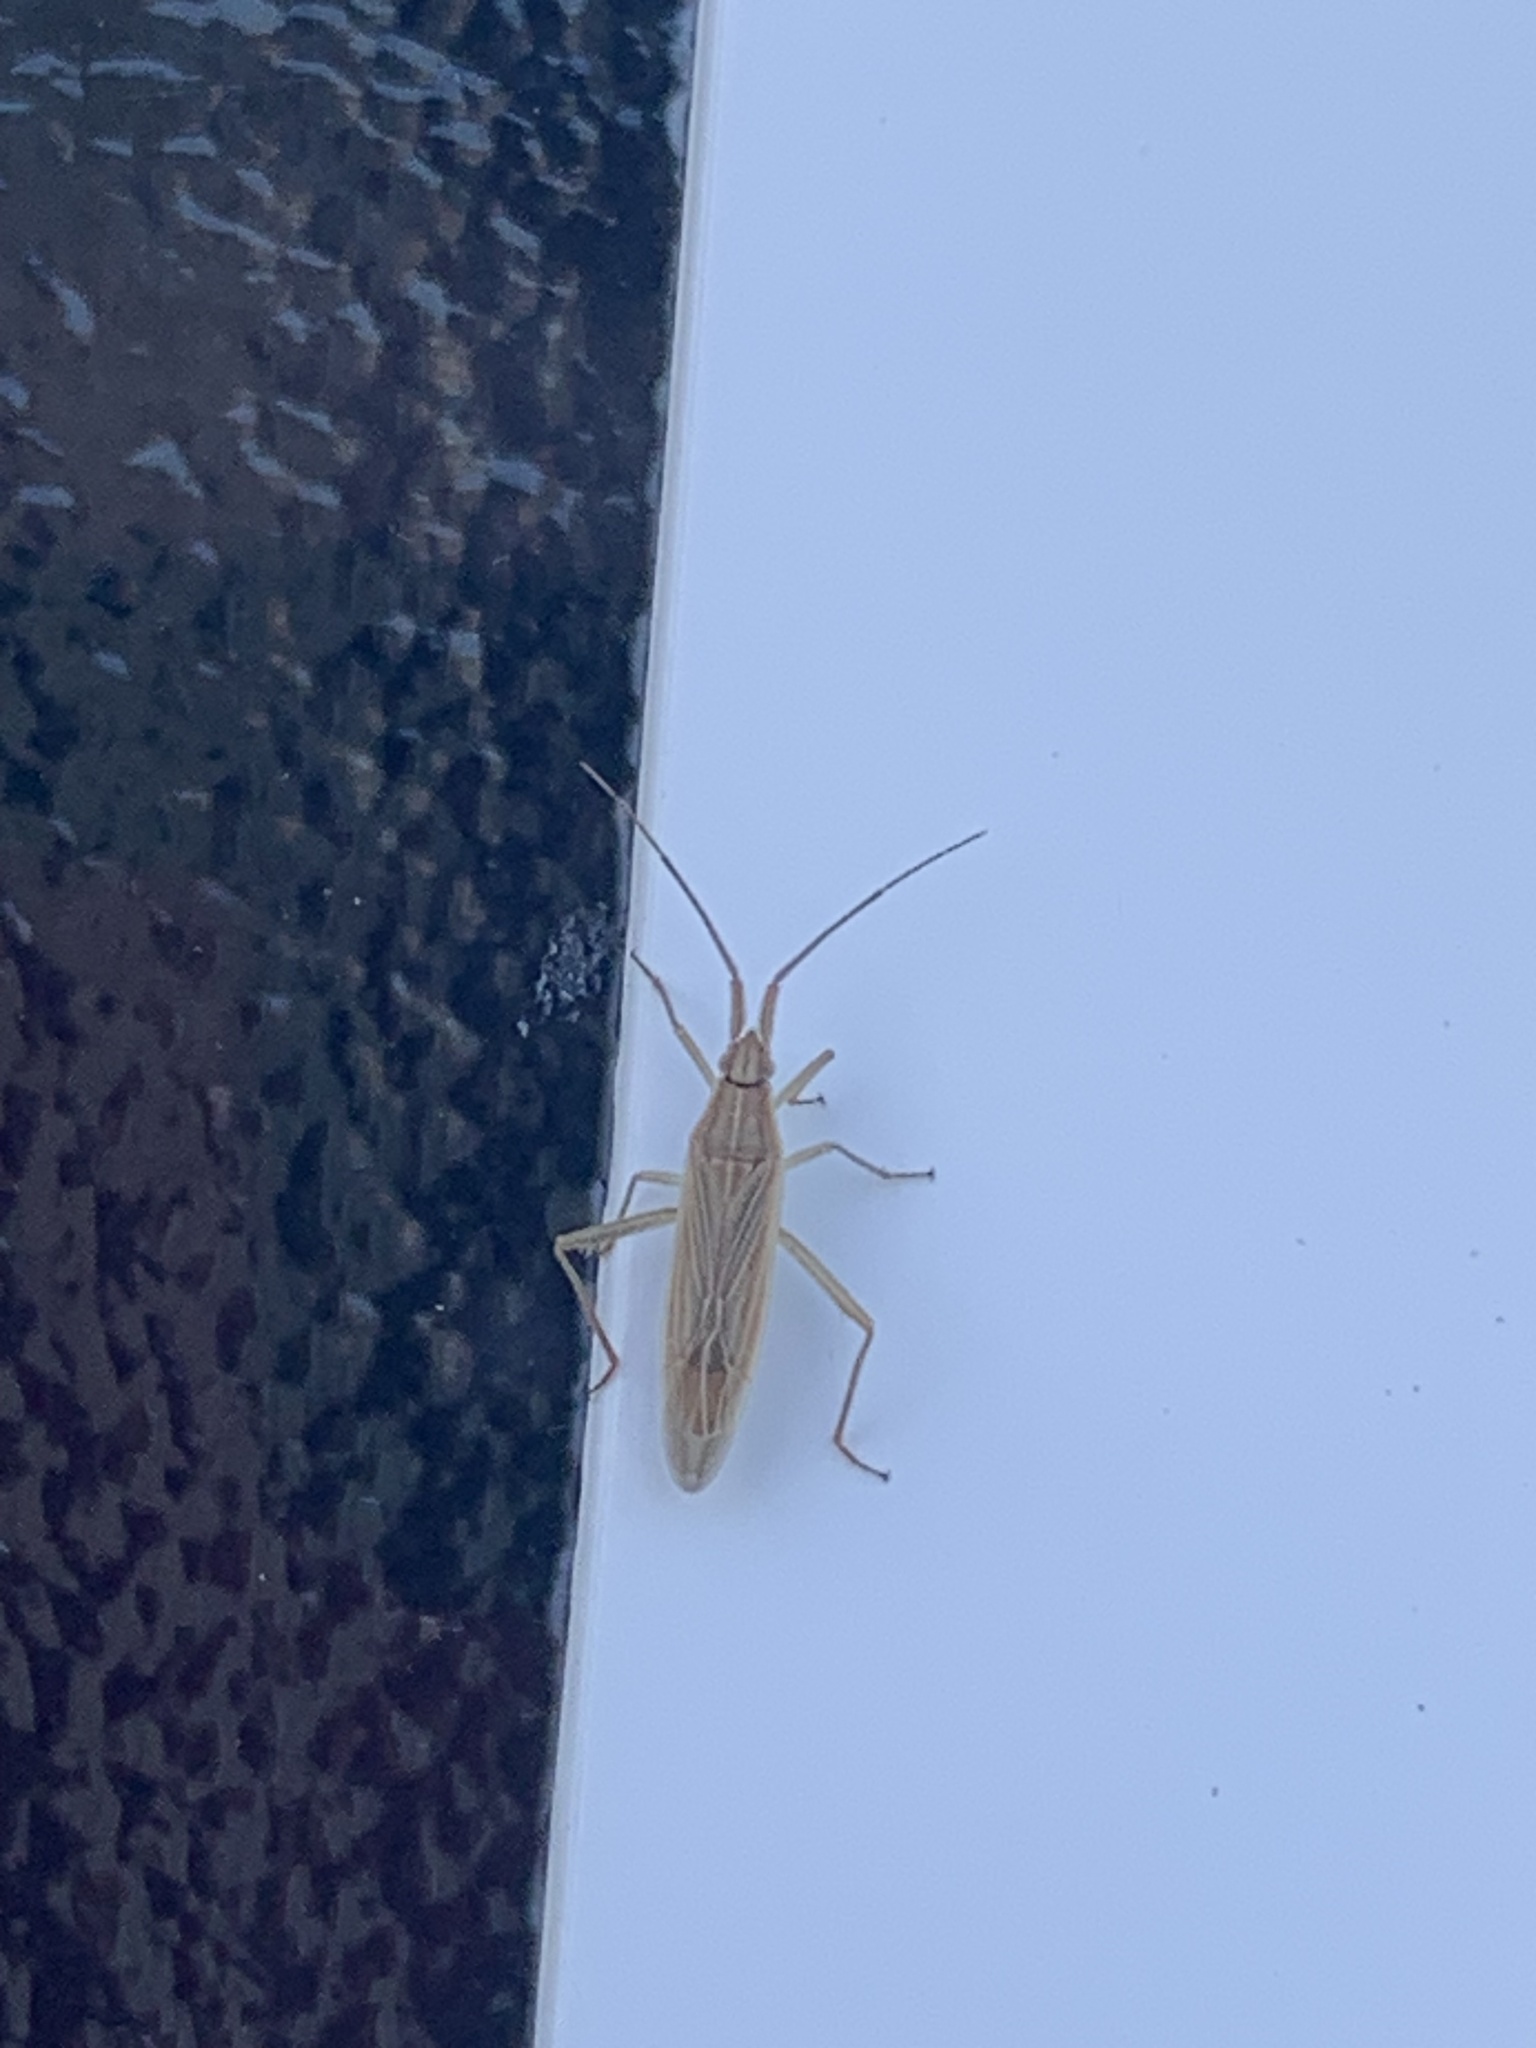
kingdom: Animalia
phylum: Arthropoda
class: Insecta
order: Hemiptera
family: Miridae
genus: Stenodema
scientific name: Stenodema calcarata
